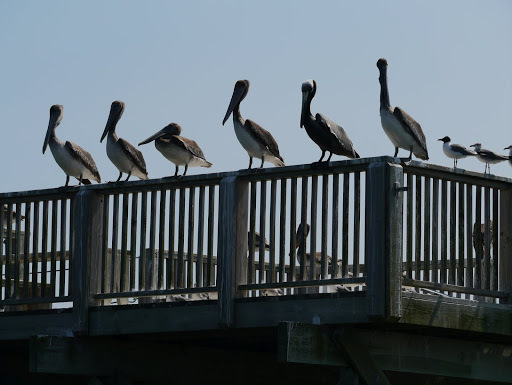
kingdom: Animalia
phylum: Chordata
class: Aves
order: Pelecaniformes
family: Pelecanidae
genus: Pelecanus
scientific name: Pelecanus occidentalis
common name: Brown pelican
